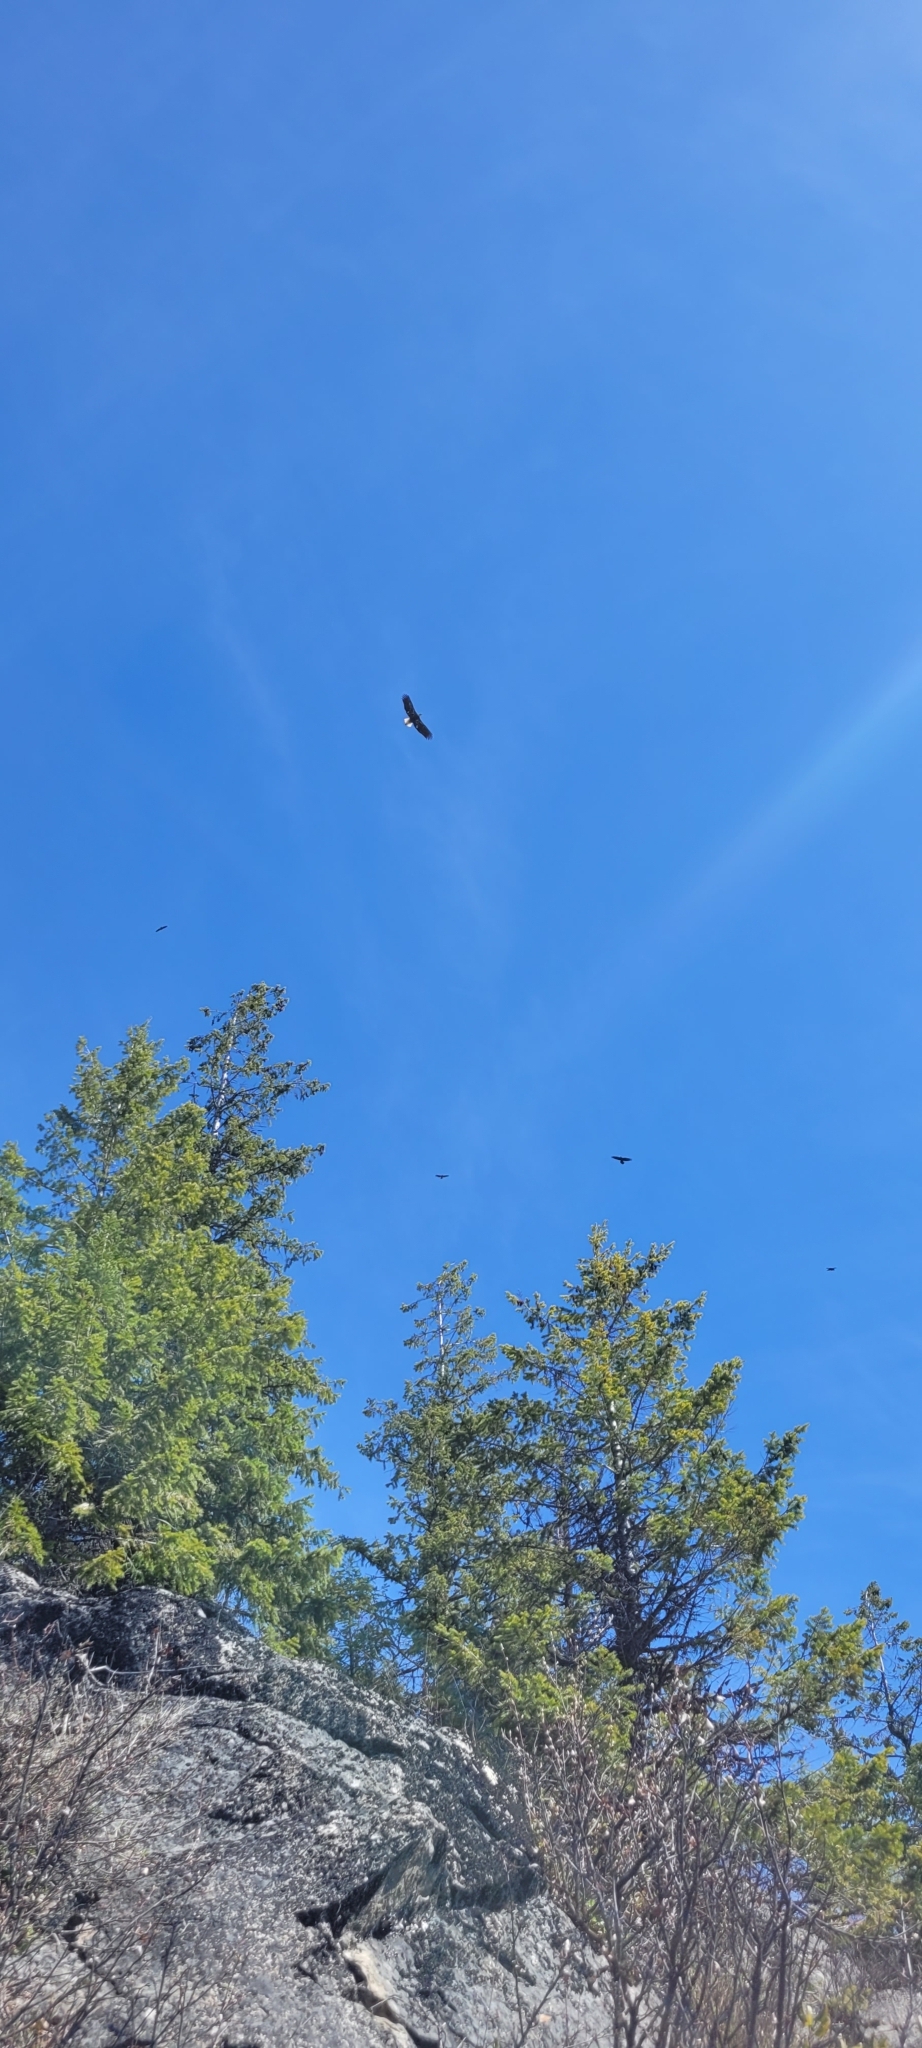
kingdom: Animalia
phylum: Chordata
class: Aves
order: Accipitriformes
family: Accipitridae
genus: Haliaeetus
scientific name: Haliaeetus leucocephalus
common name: Bald eagle
